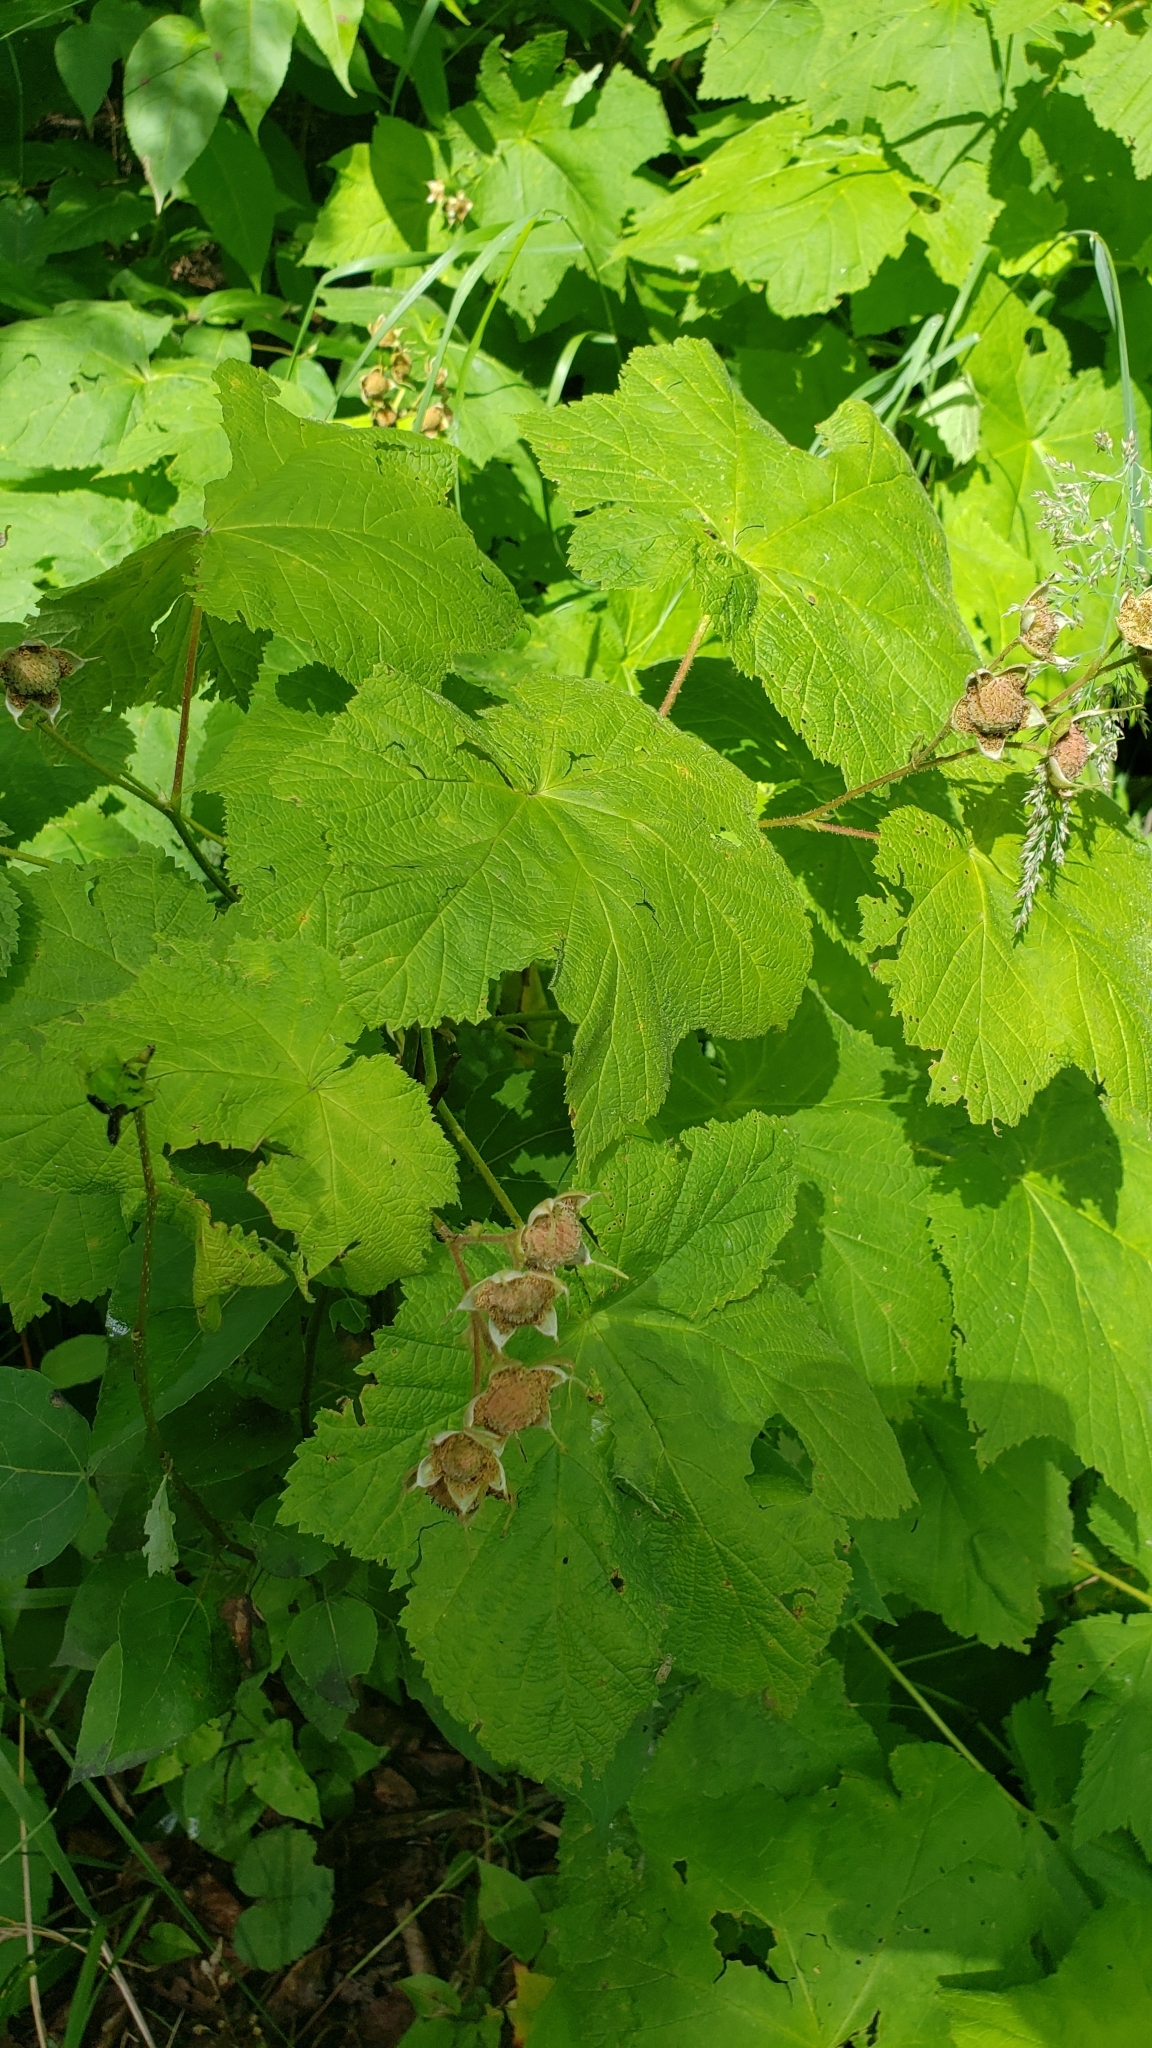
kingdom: Plantae
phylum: Tracheophyta
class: Magnoliopsida
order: Rosales
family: Rosaceae
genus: Rubus
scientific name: Rubus parviflorus
